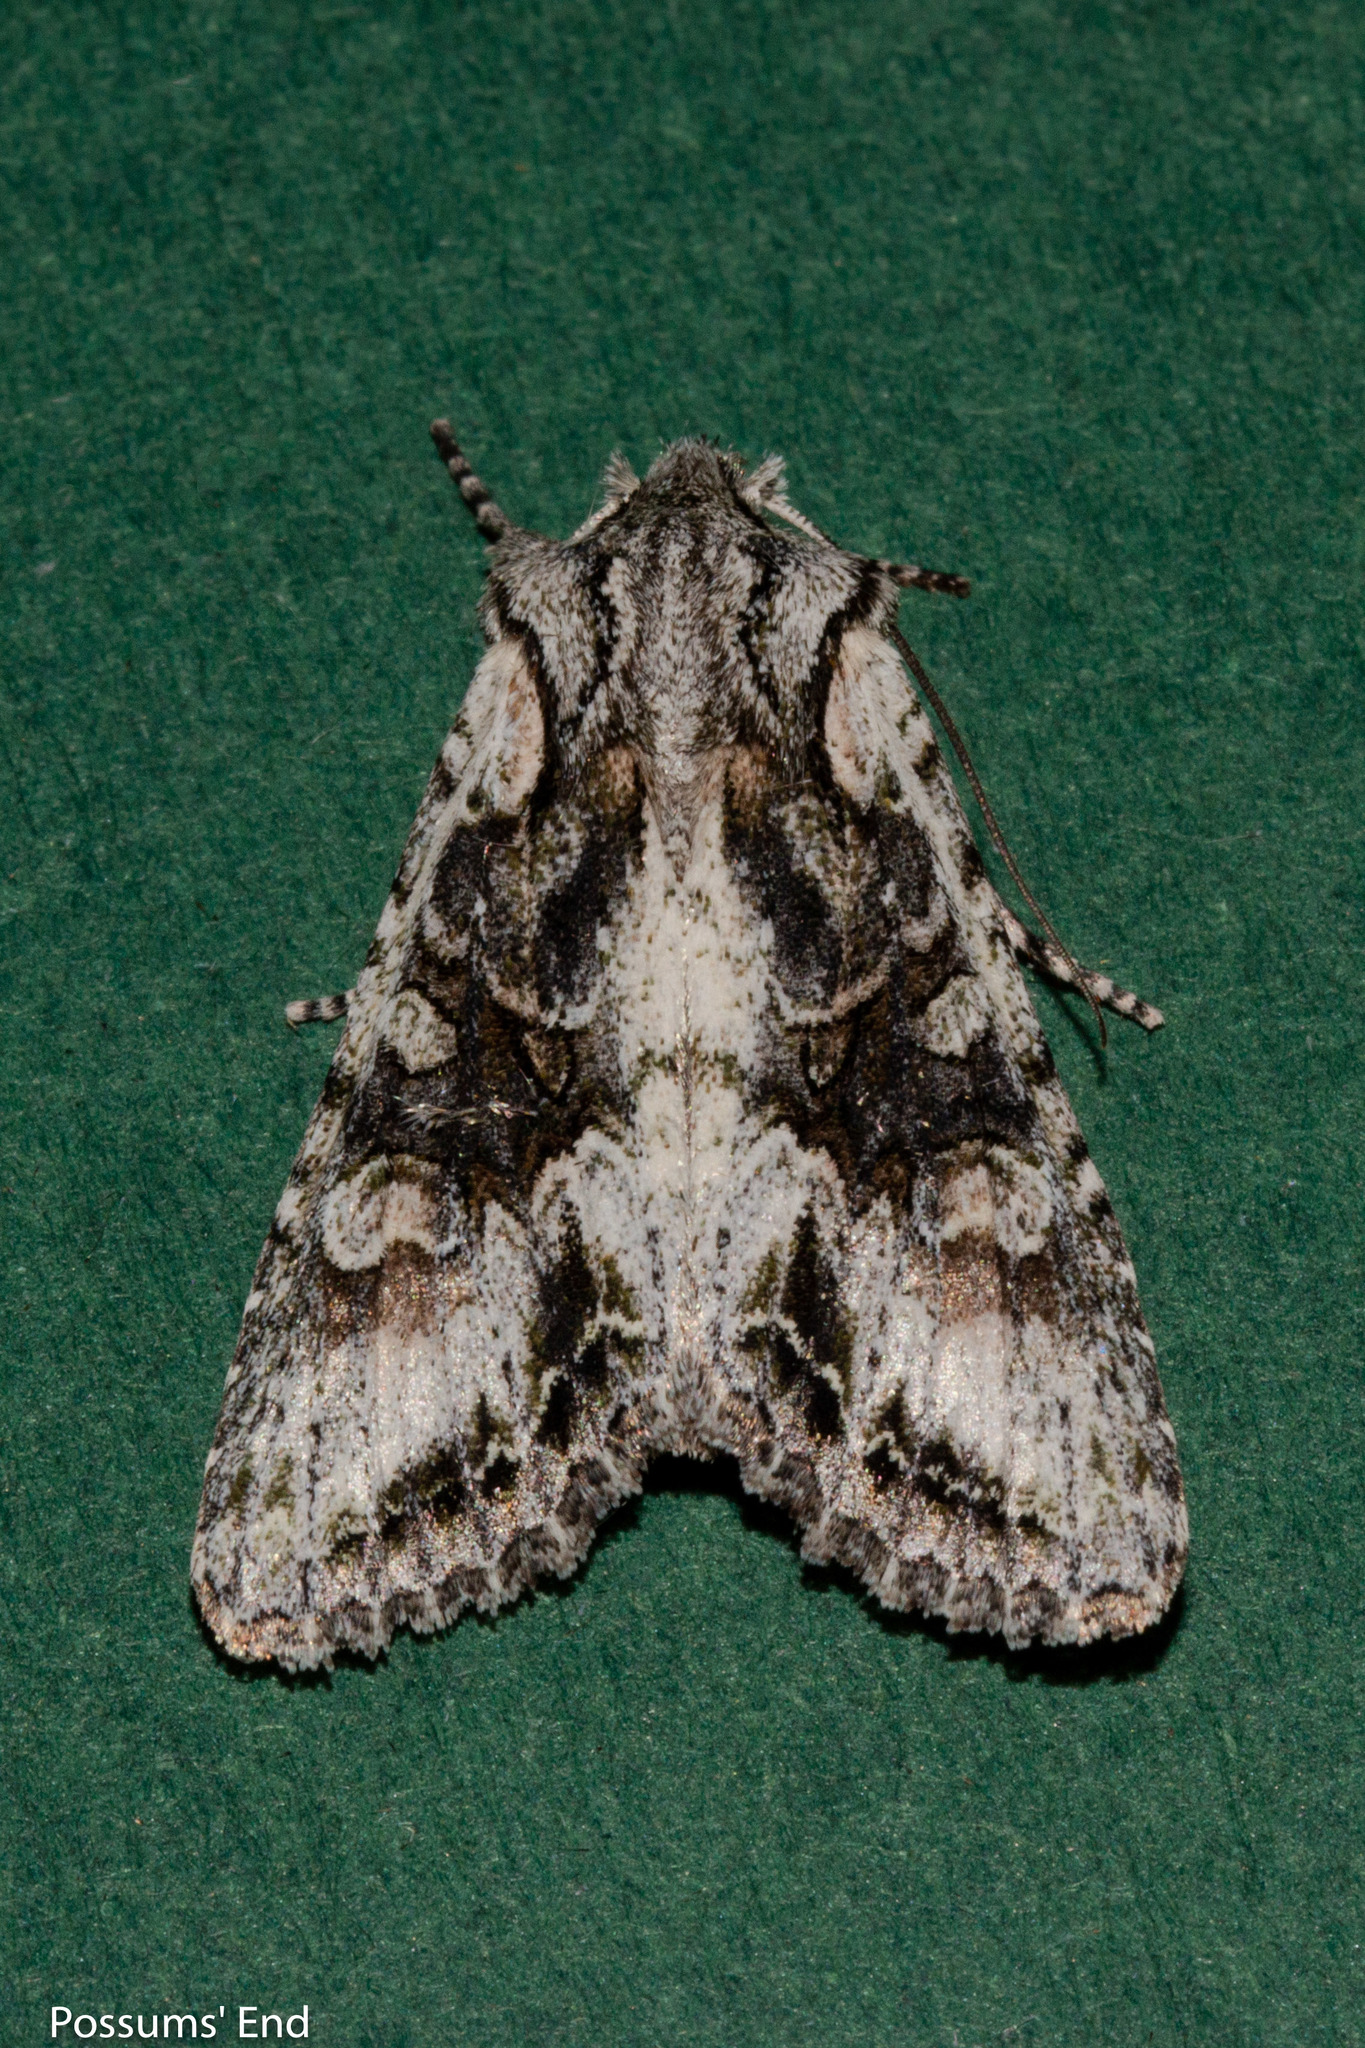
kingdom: Animalia
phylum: Arthropoda
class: Insecta
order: Lepidoptera
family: Noctuidae
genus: Ichneutica
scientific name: Ichneutica mutans
